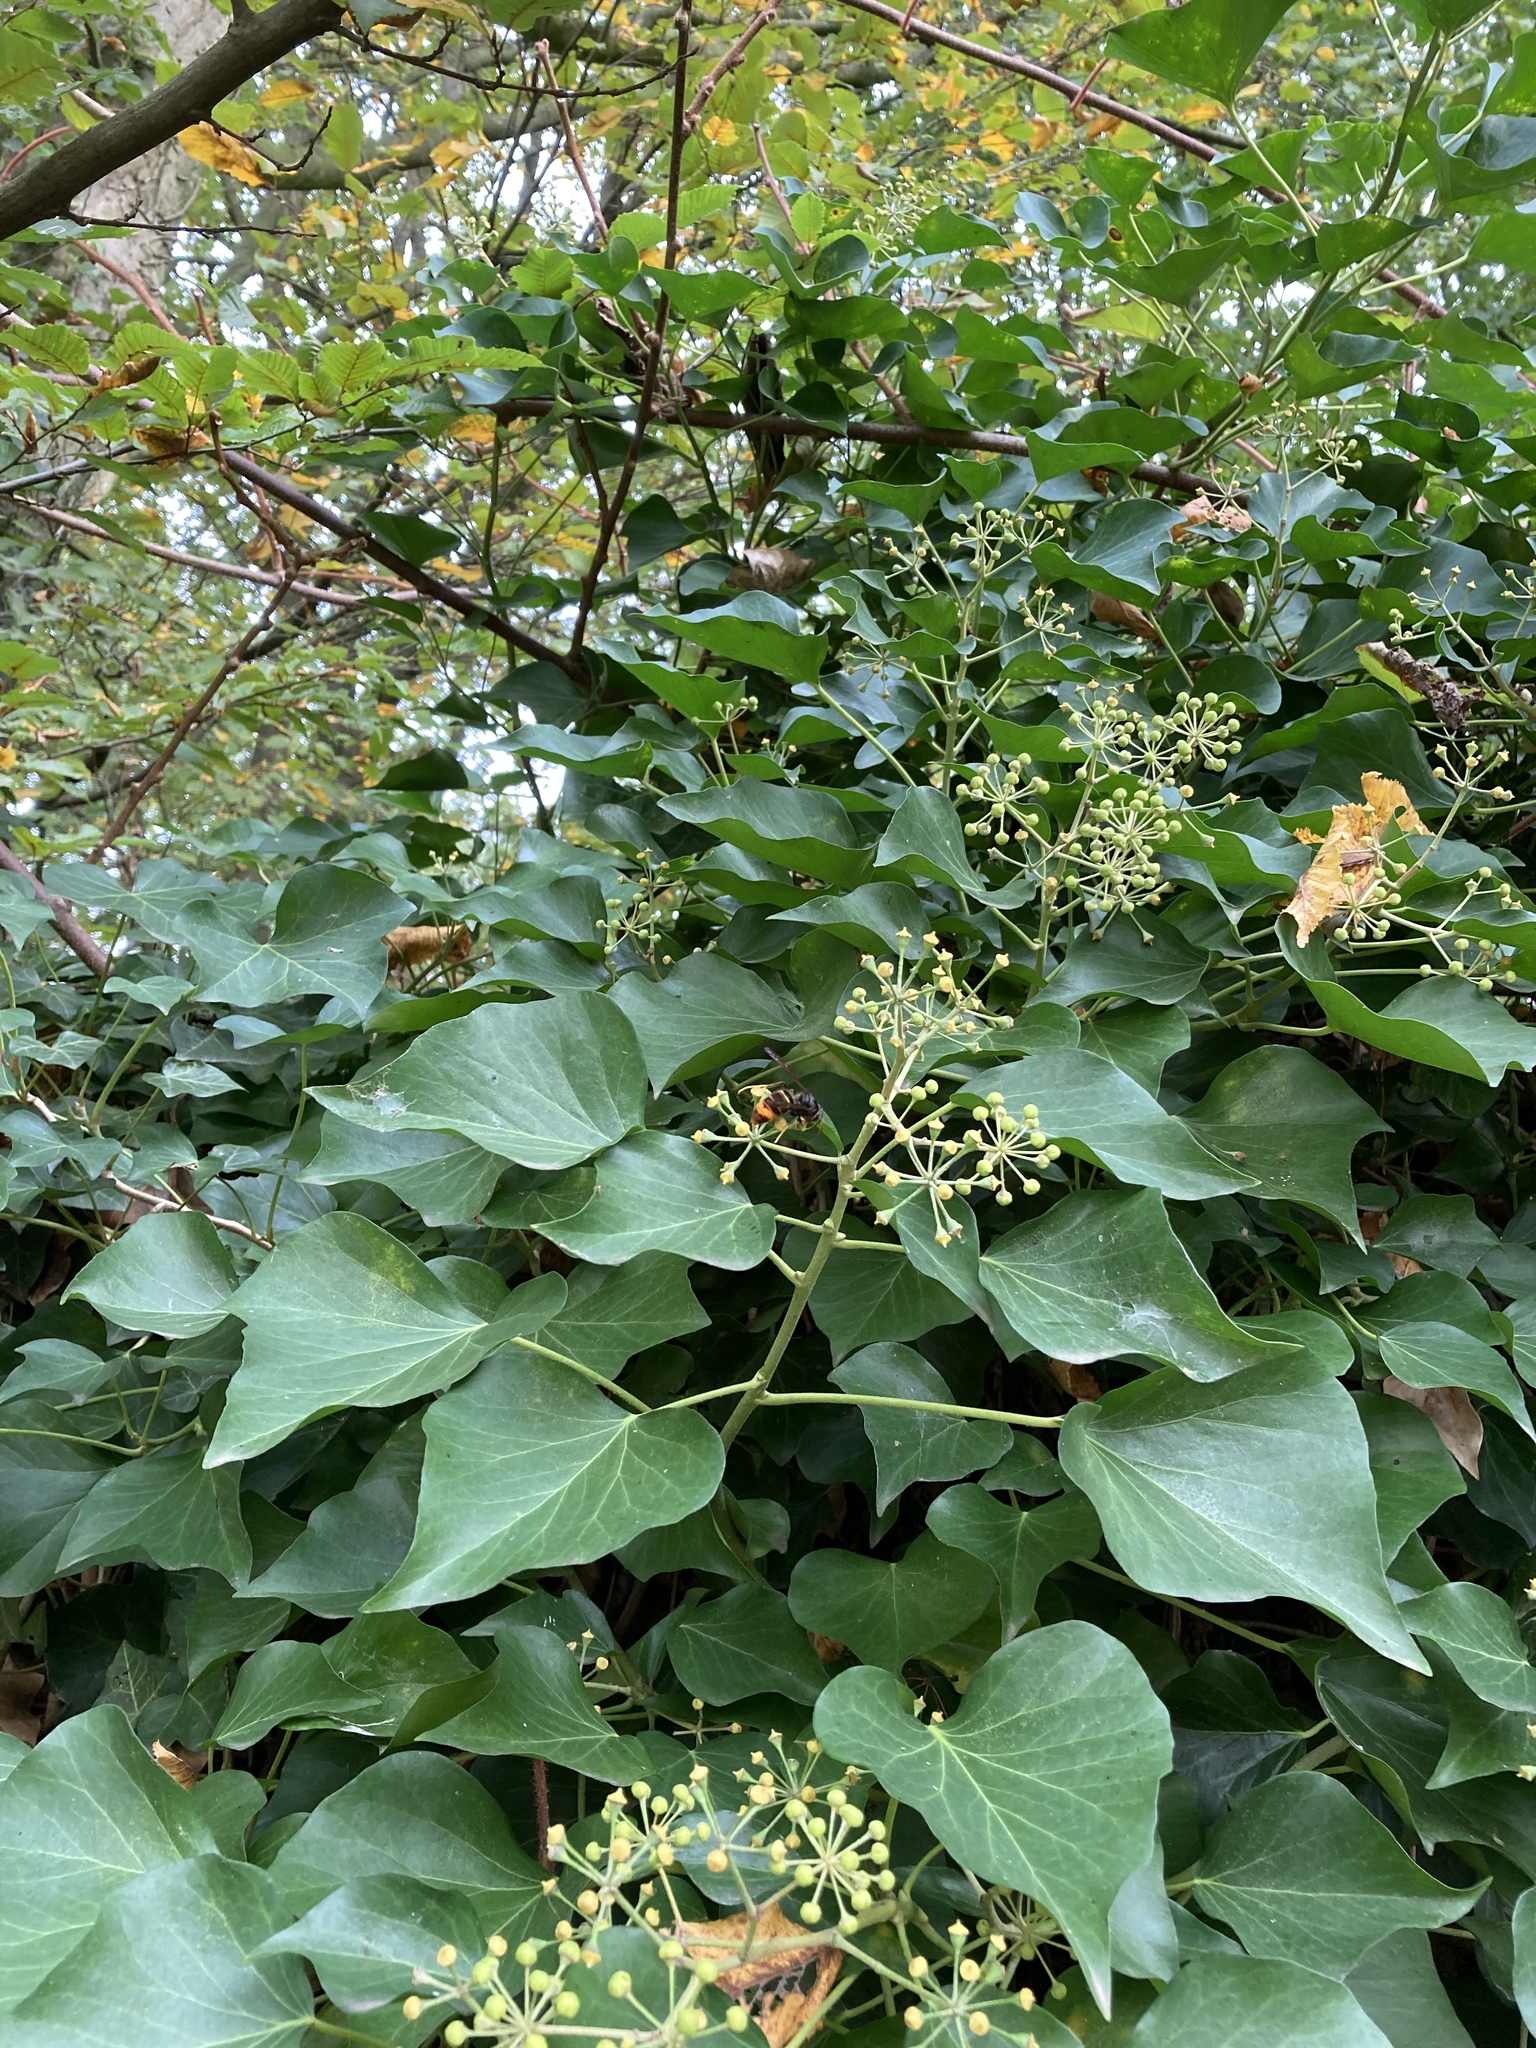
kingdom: Animalia
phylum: Arthropoda
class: Insecta
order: Hymenoptera
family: Vespidae
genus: Vespa
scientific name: Vespa velutina
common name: Asian hornet
